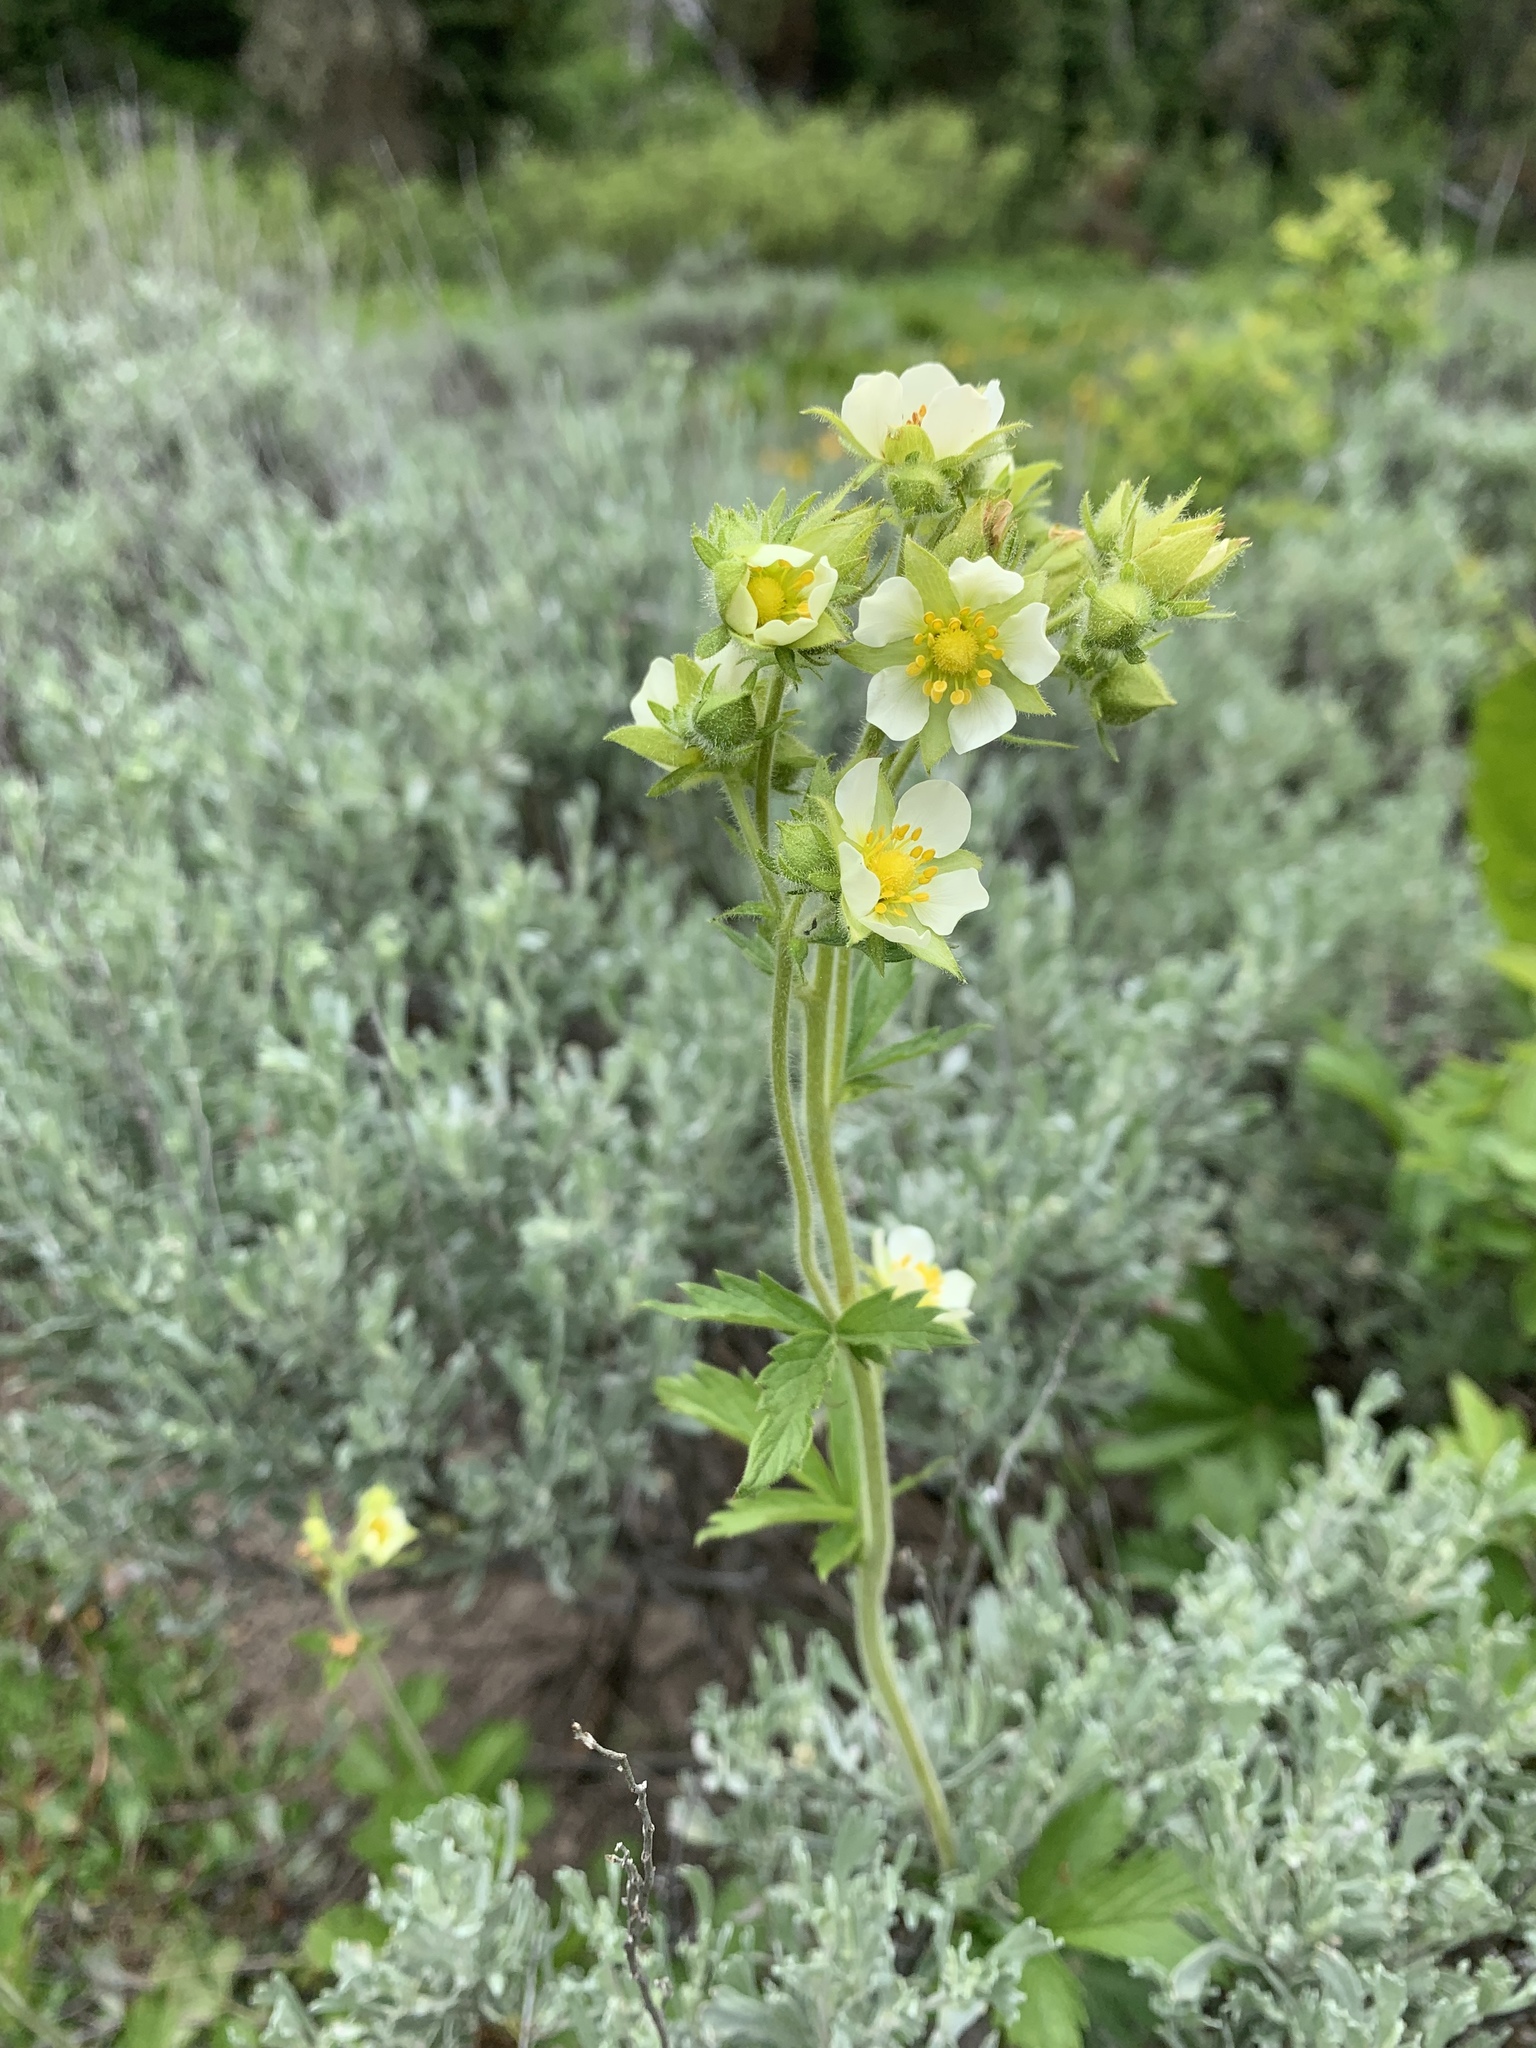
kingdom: Plantae
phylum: Tracheophyta
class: Magnoliopsida
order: Rosales
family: Rosaceae
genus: Drymocallis
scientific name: Drymocallis glandulosa
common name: Sticky cinquefoil
